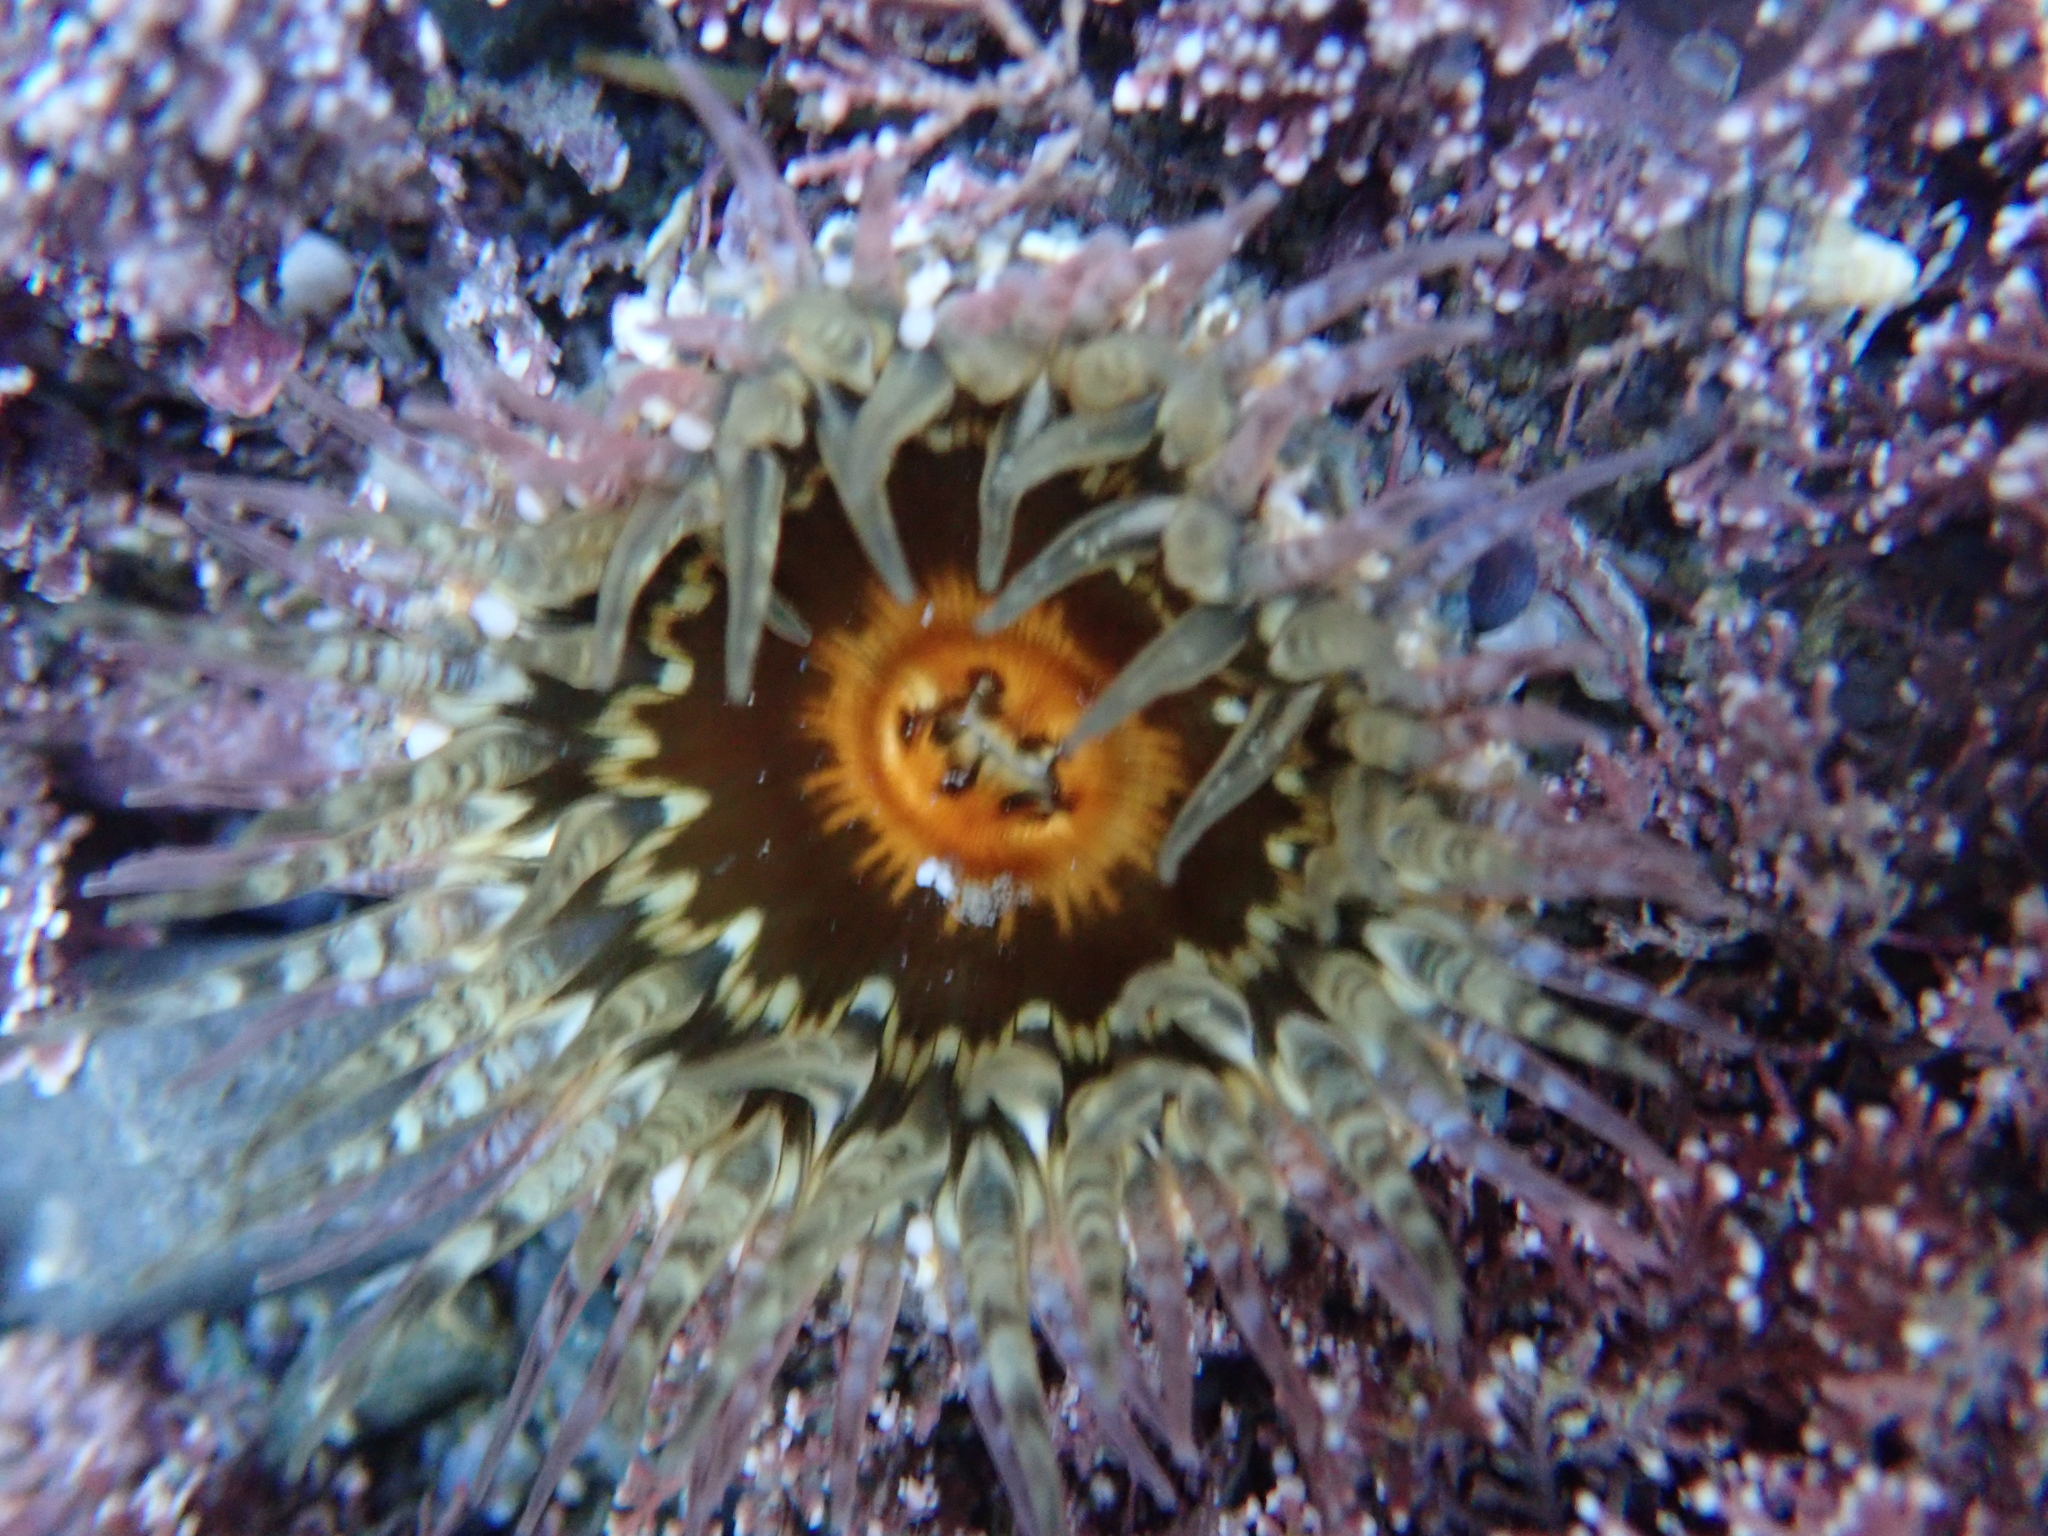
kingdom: Animalia
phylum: Cnidaria
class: Anthozoa
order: Actiniaria
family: Actiniidae
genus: Oulactis
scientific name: Oulactis muscosa
